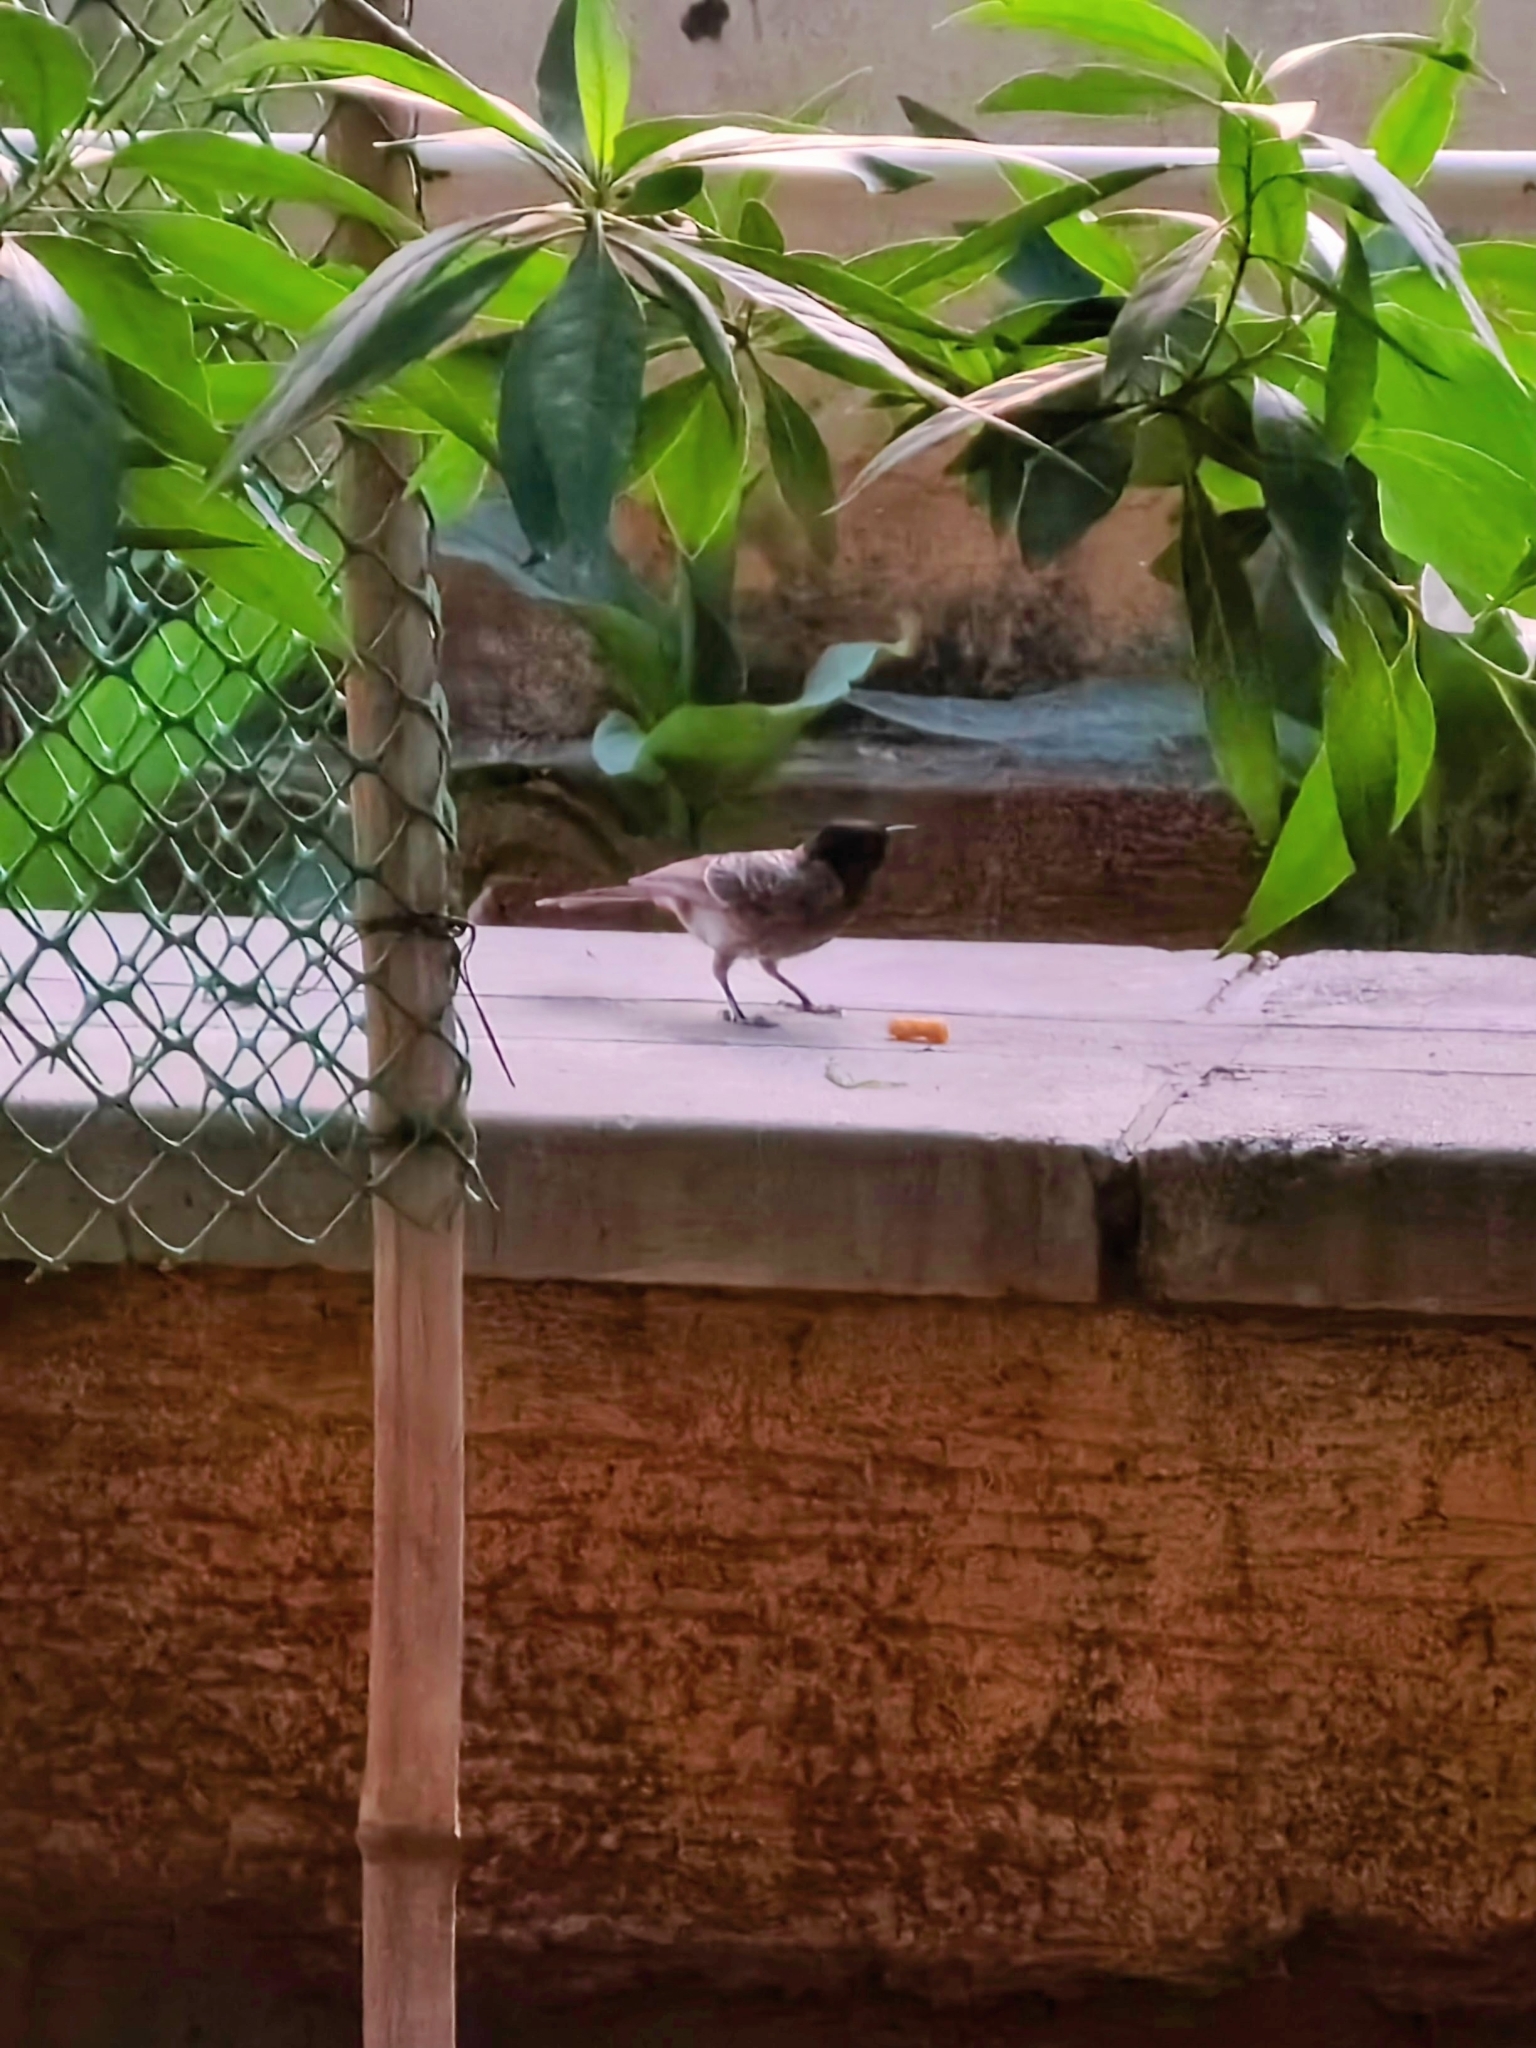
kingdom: Animalia
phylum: Chordata
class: Aves
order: Passeriformes
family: Pycnonotidae
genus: Pycnonotus
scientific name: Pycnonotus cafer
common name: Red-vented bulbul
